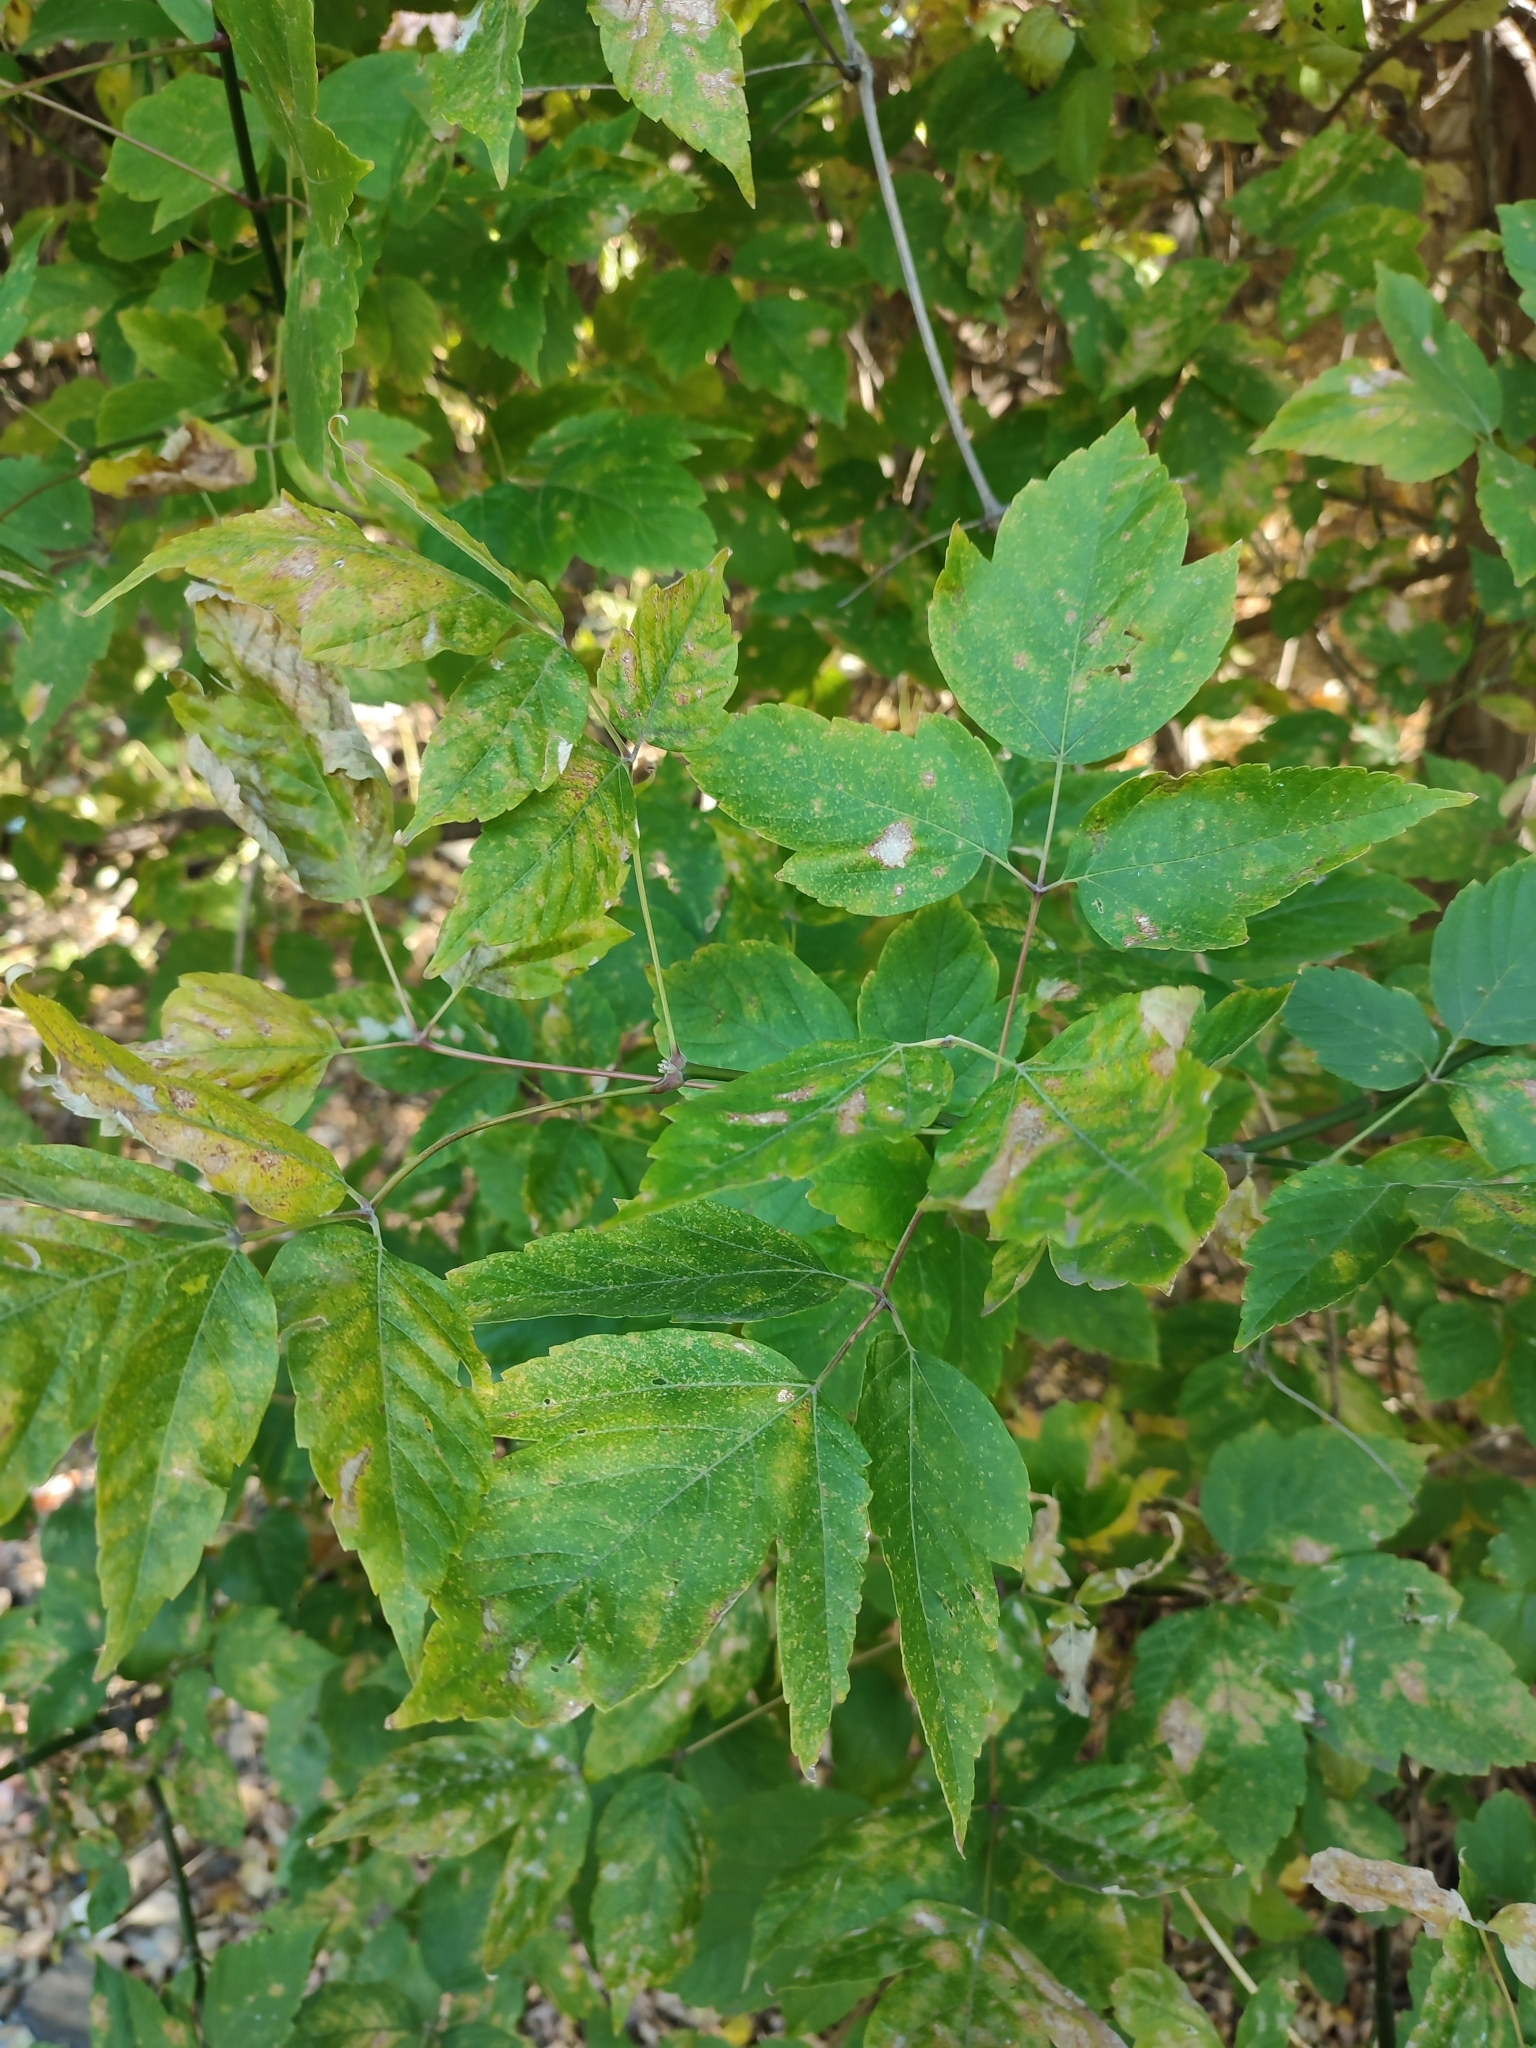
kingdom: Plantae
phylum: Tracheophyta
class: Magnoliopsida
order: Sapindales
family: Sapindaceae
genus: Acer
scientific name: Acer negundo
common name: Ashleaf maple
